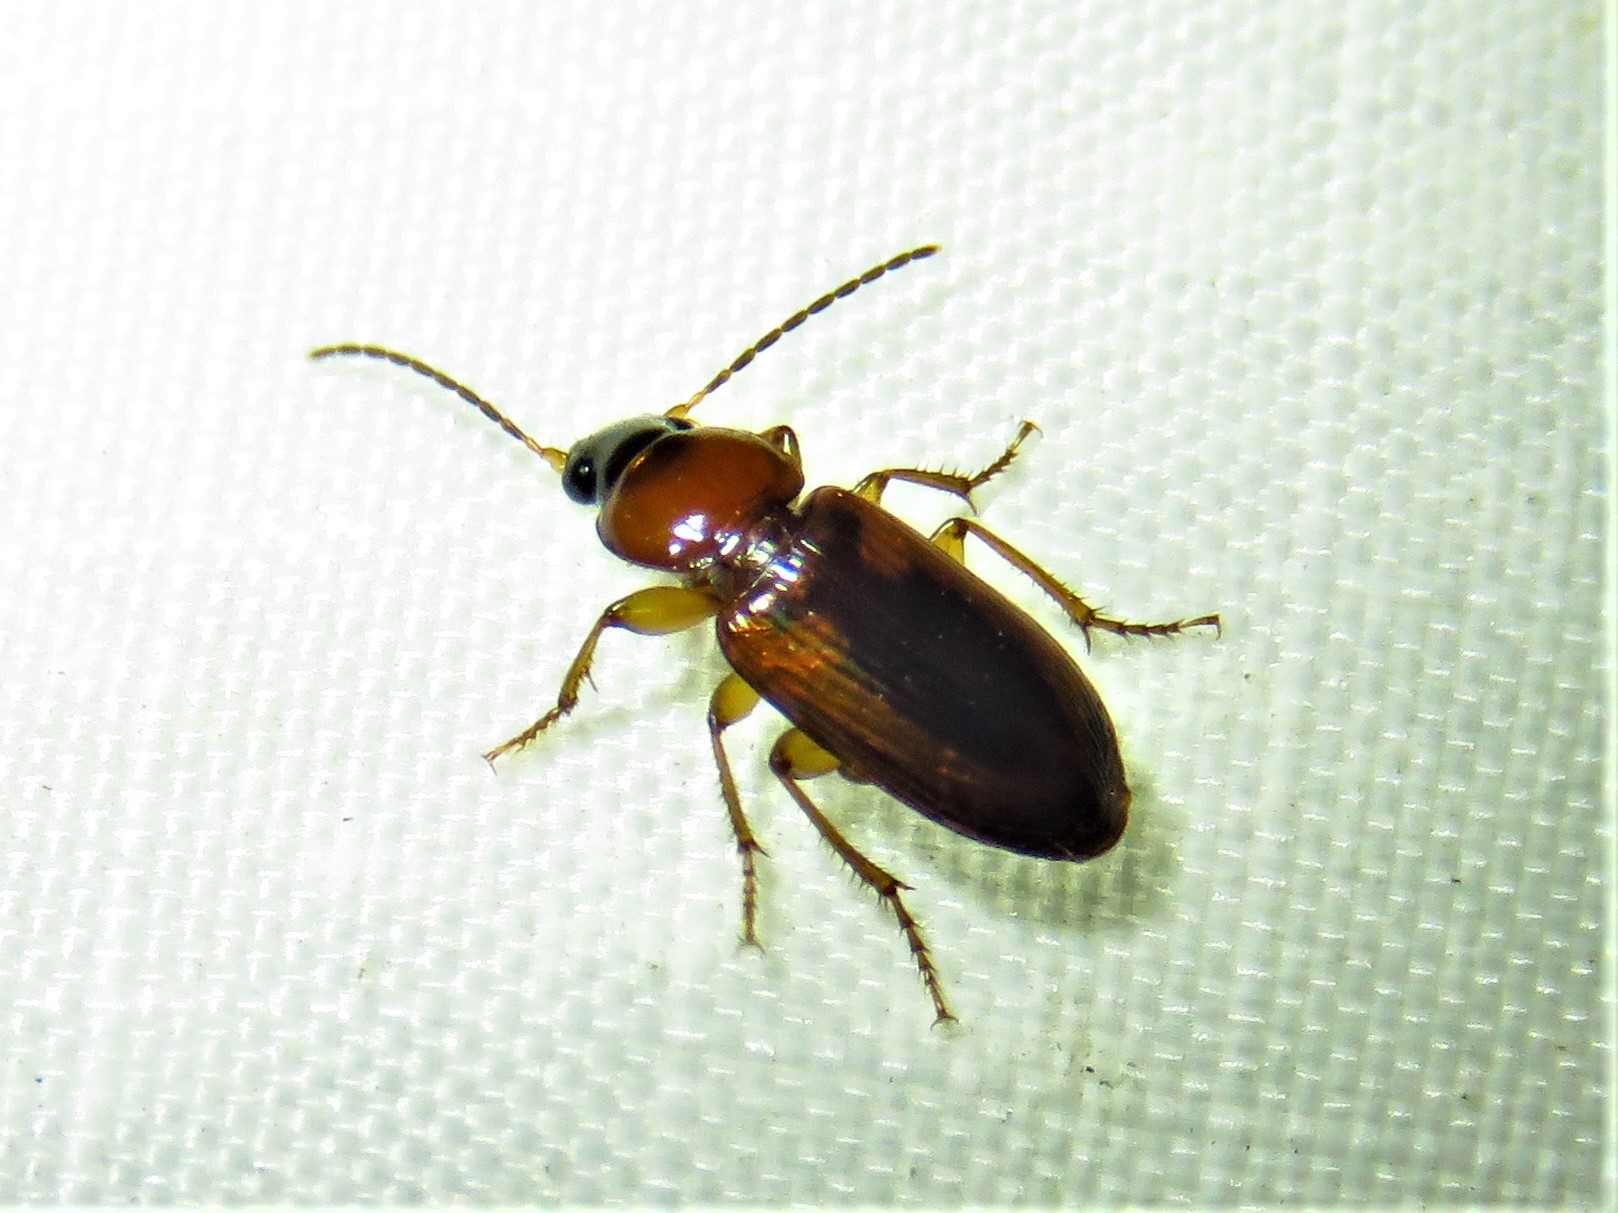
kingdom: Animalia
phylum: Arthropoda
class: Insecta
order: Coleoptera
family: Carabidae
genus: Stenolophus
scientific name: Stenolophus dissimilis
